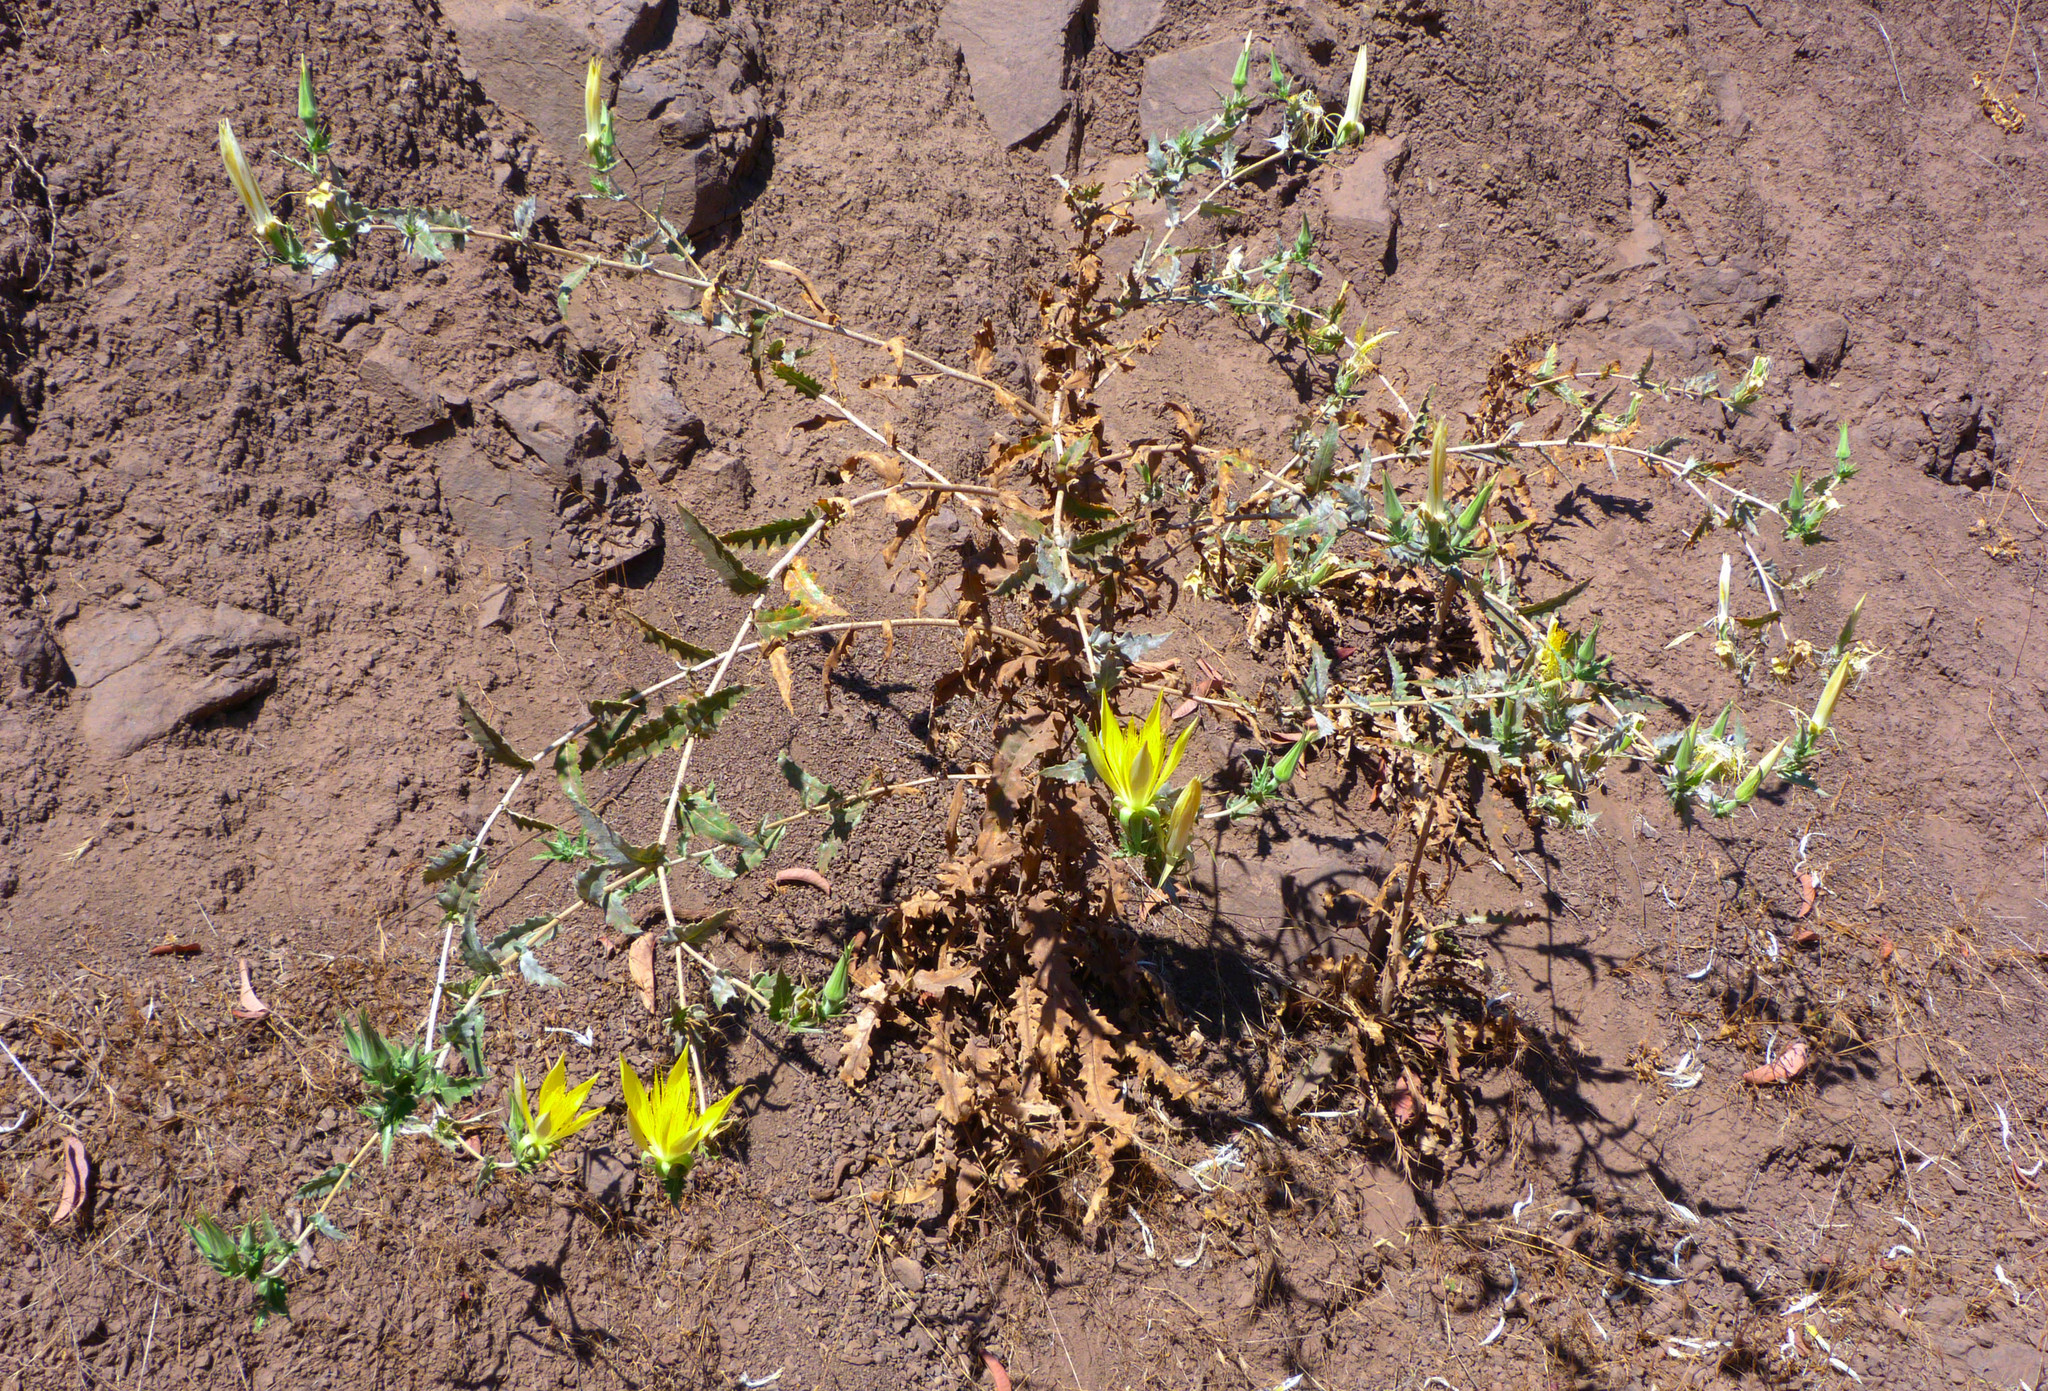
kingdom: Plantae
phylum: Tracheophyta
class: Magnoliopsida
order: Cornales
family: Loasaceae
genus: Mentzelia
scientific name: Mentzelia laevicaulis
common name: Smooth-stem blazingstar
